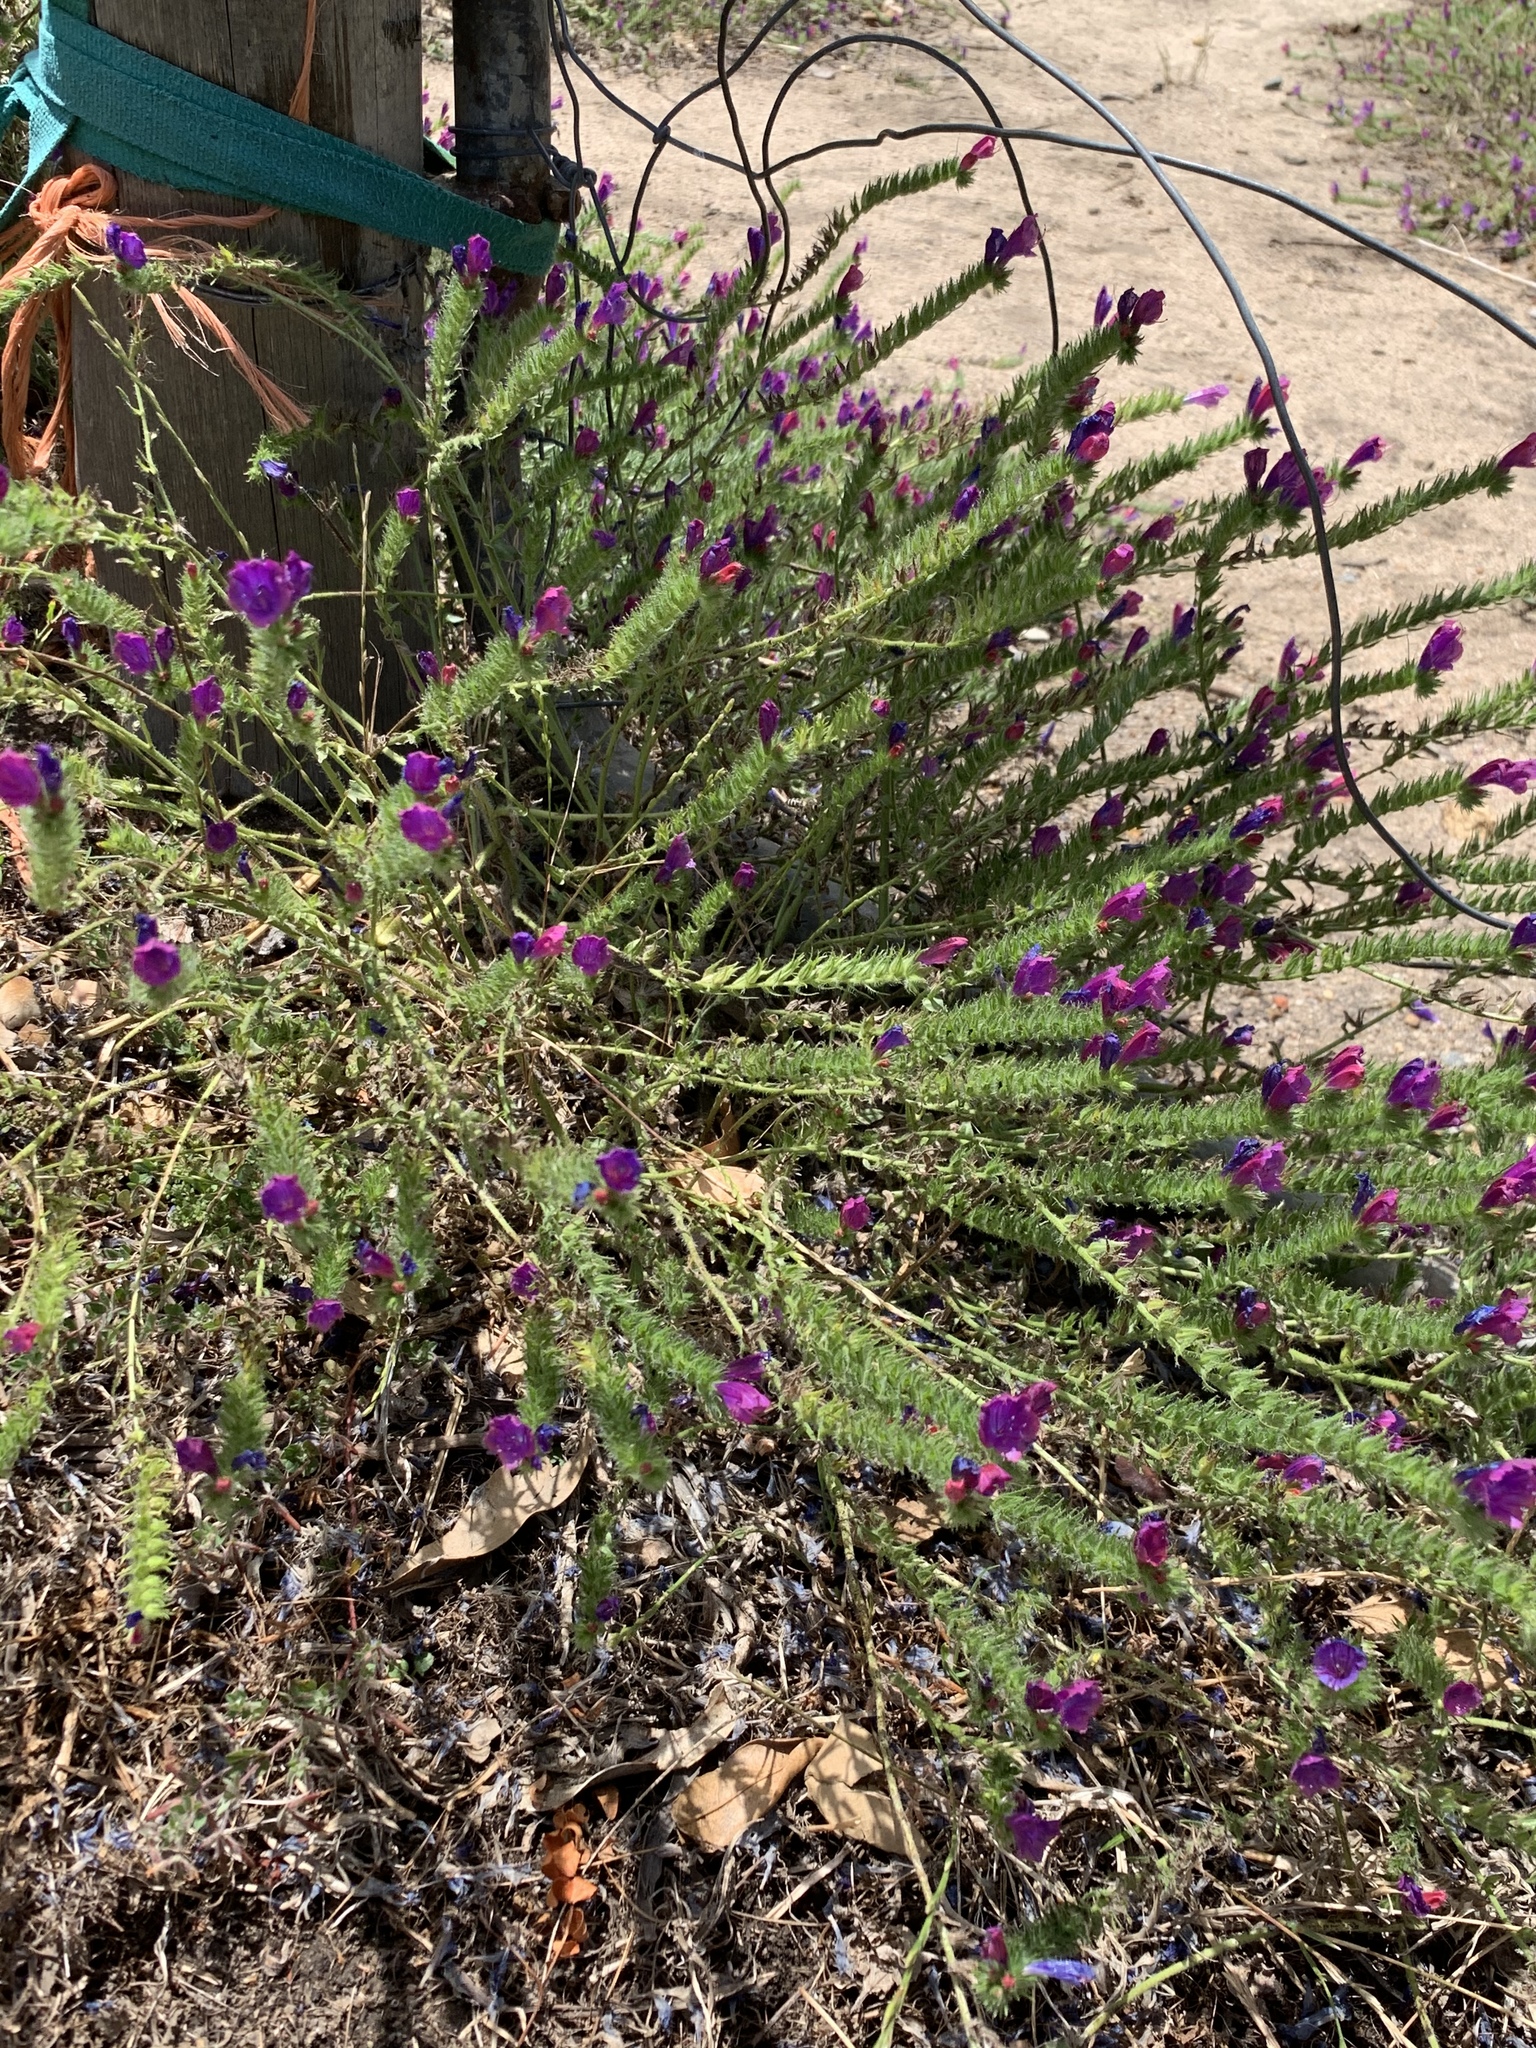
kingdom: Plantae
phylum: Tracheophyta
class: Magnoliopsida
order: Boraginales
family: Boraginaceae
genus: Echium
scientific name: Echium plantagineum
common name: Purple viper's-bugloss
